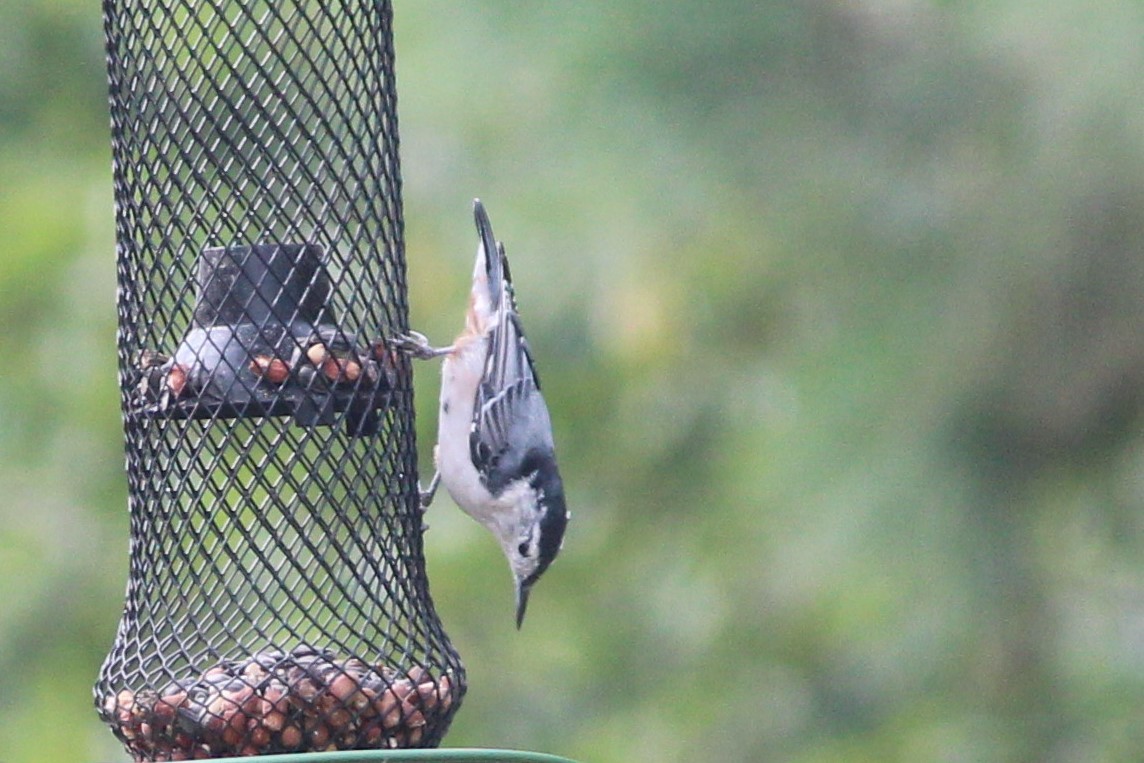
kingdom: Animalia
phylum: Chordata
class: Aves
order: Passeriformes
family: Sittidae
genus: Sitta
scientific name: Sitta carolinensis
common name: White-breasted nuthatch
